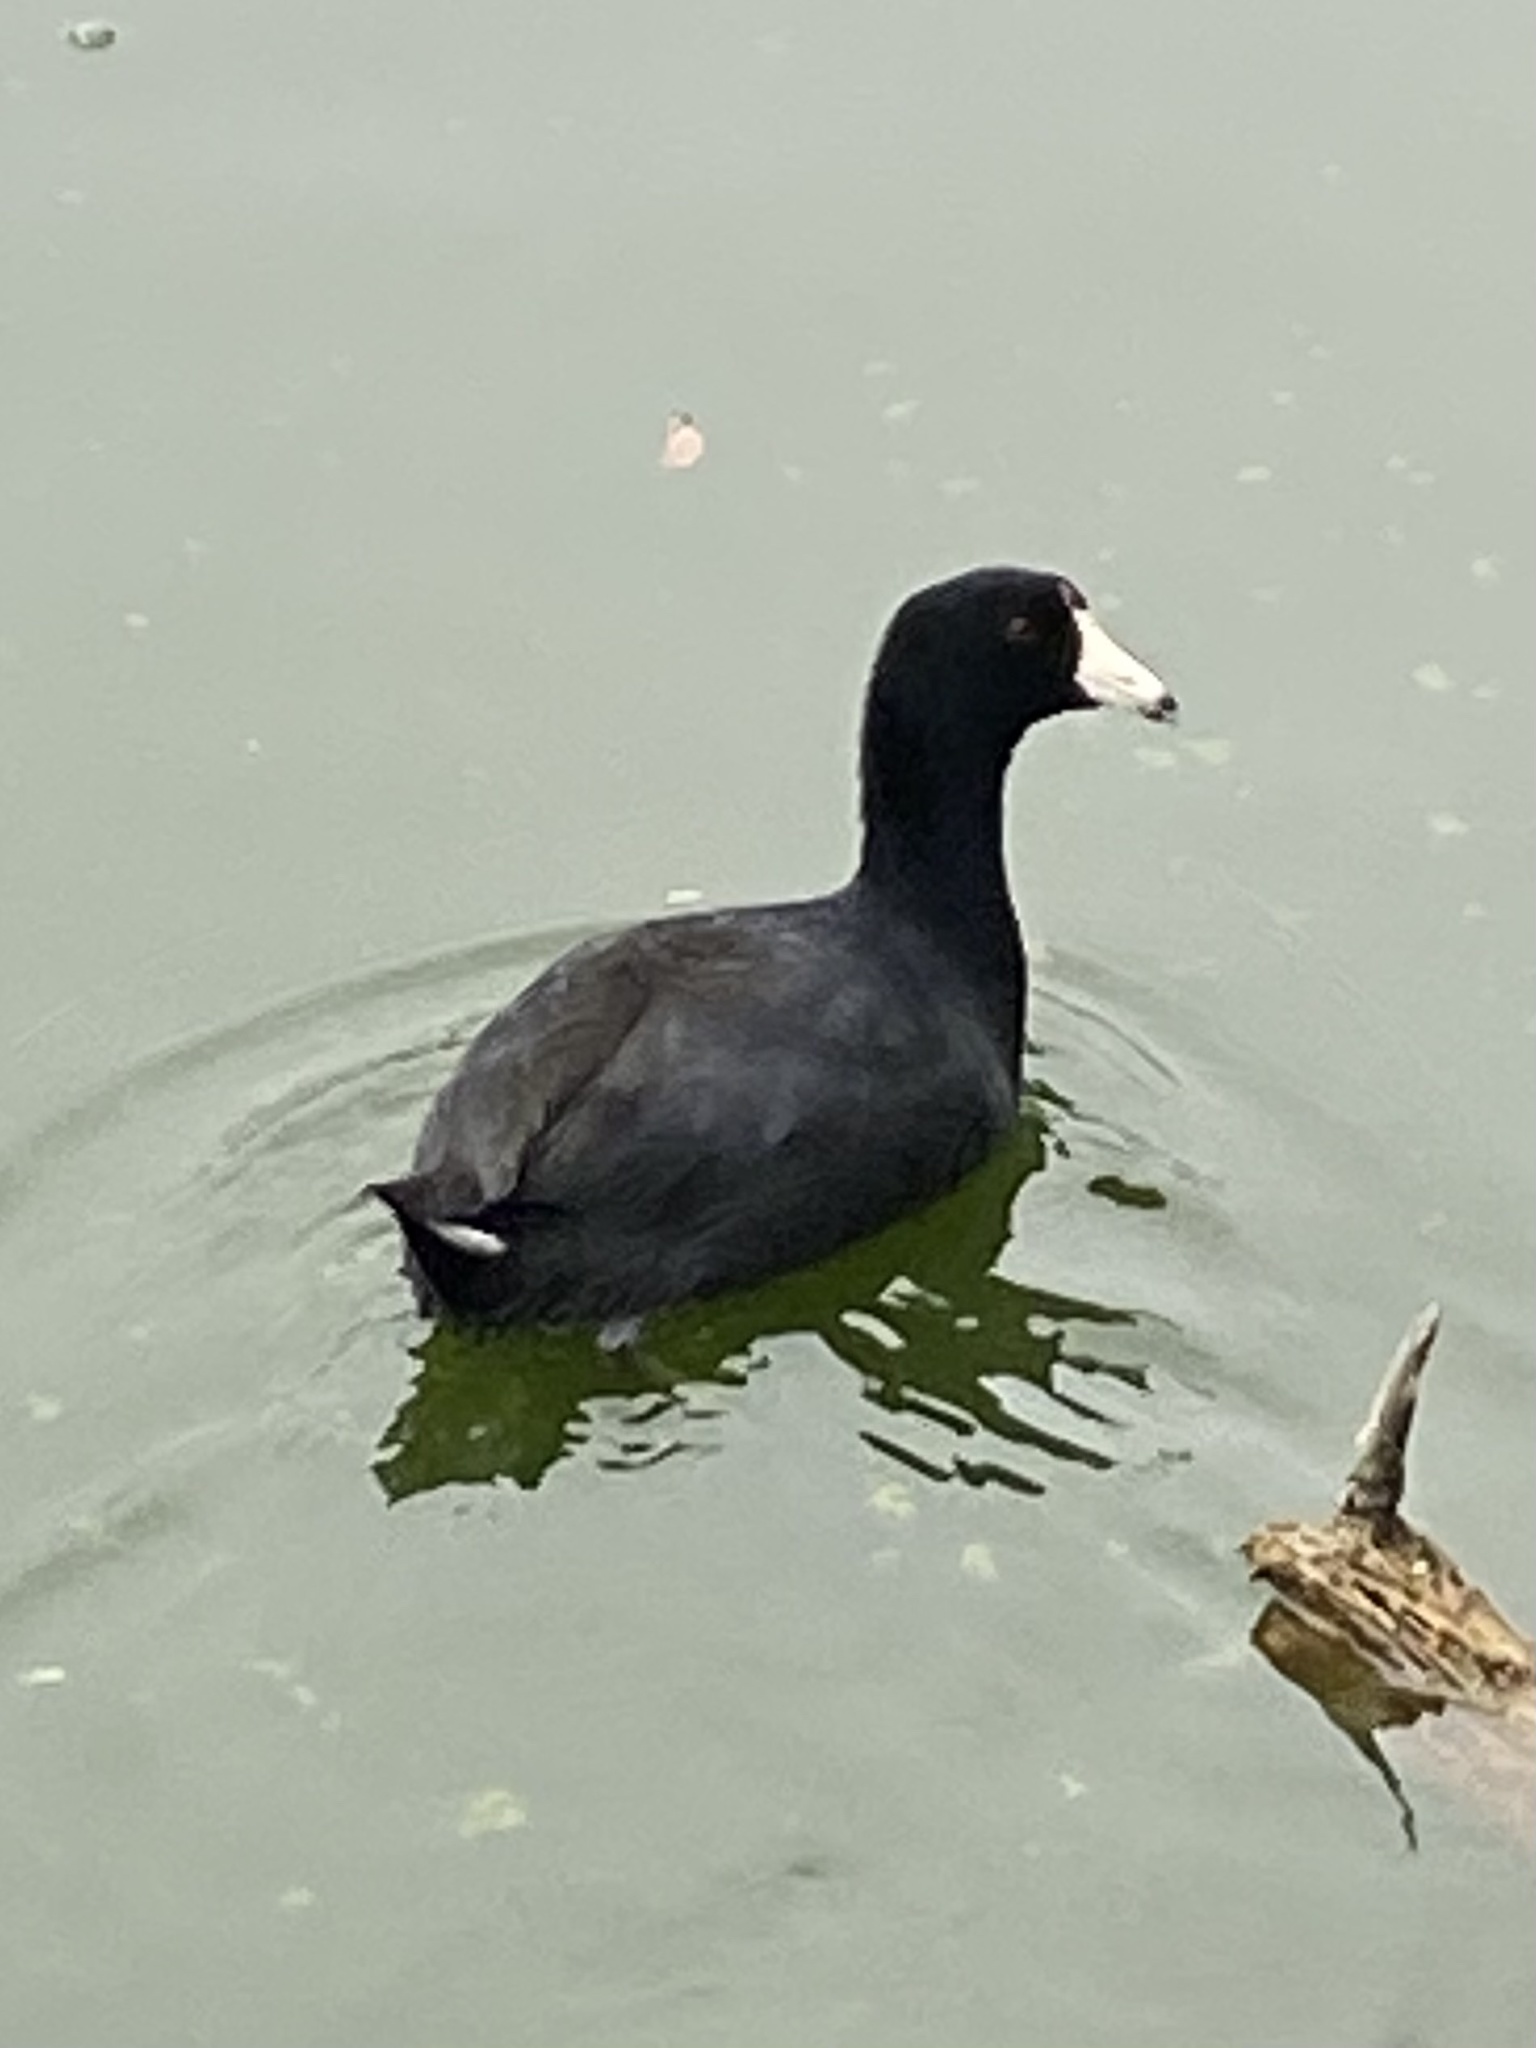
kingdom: Animalia
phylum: Chordata
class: Aves
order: Gruiformes
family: Rallidae
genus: Fulica
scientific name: Fulica americana
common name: American coot
